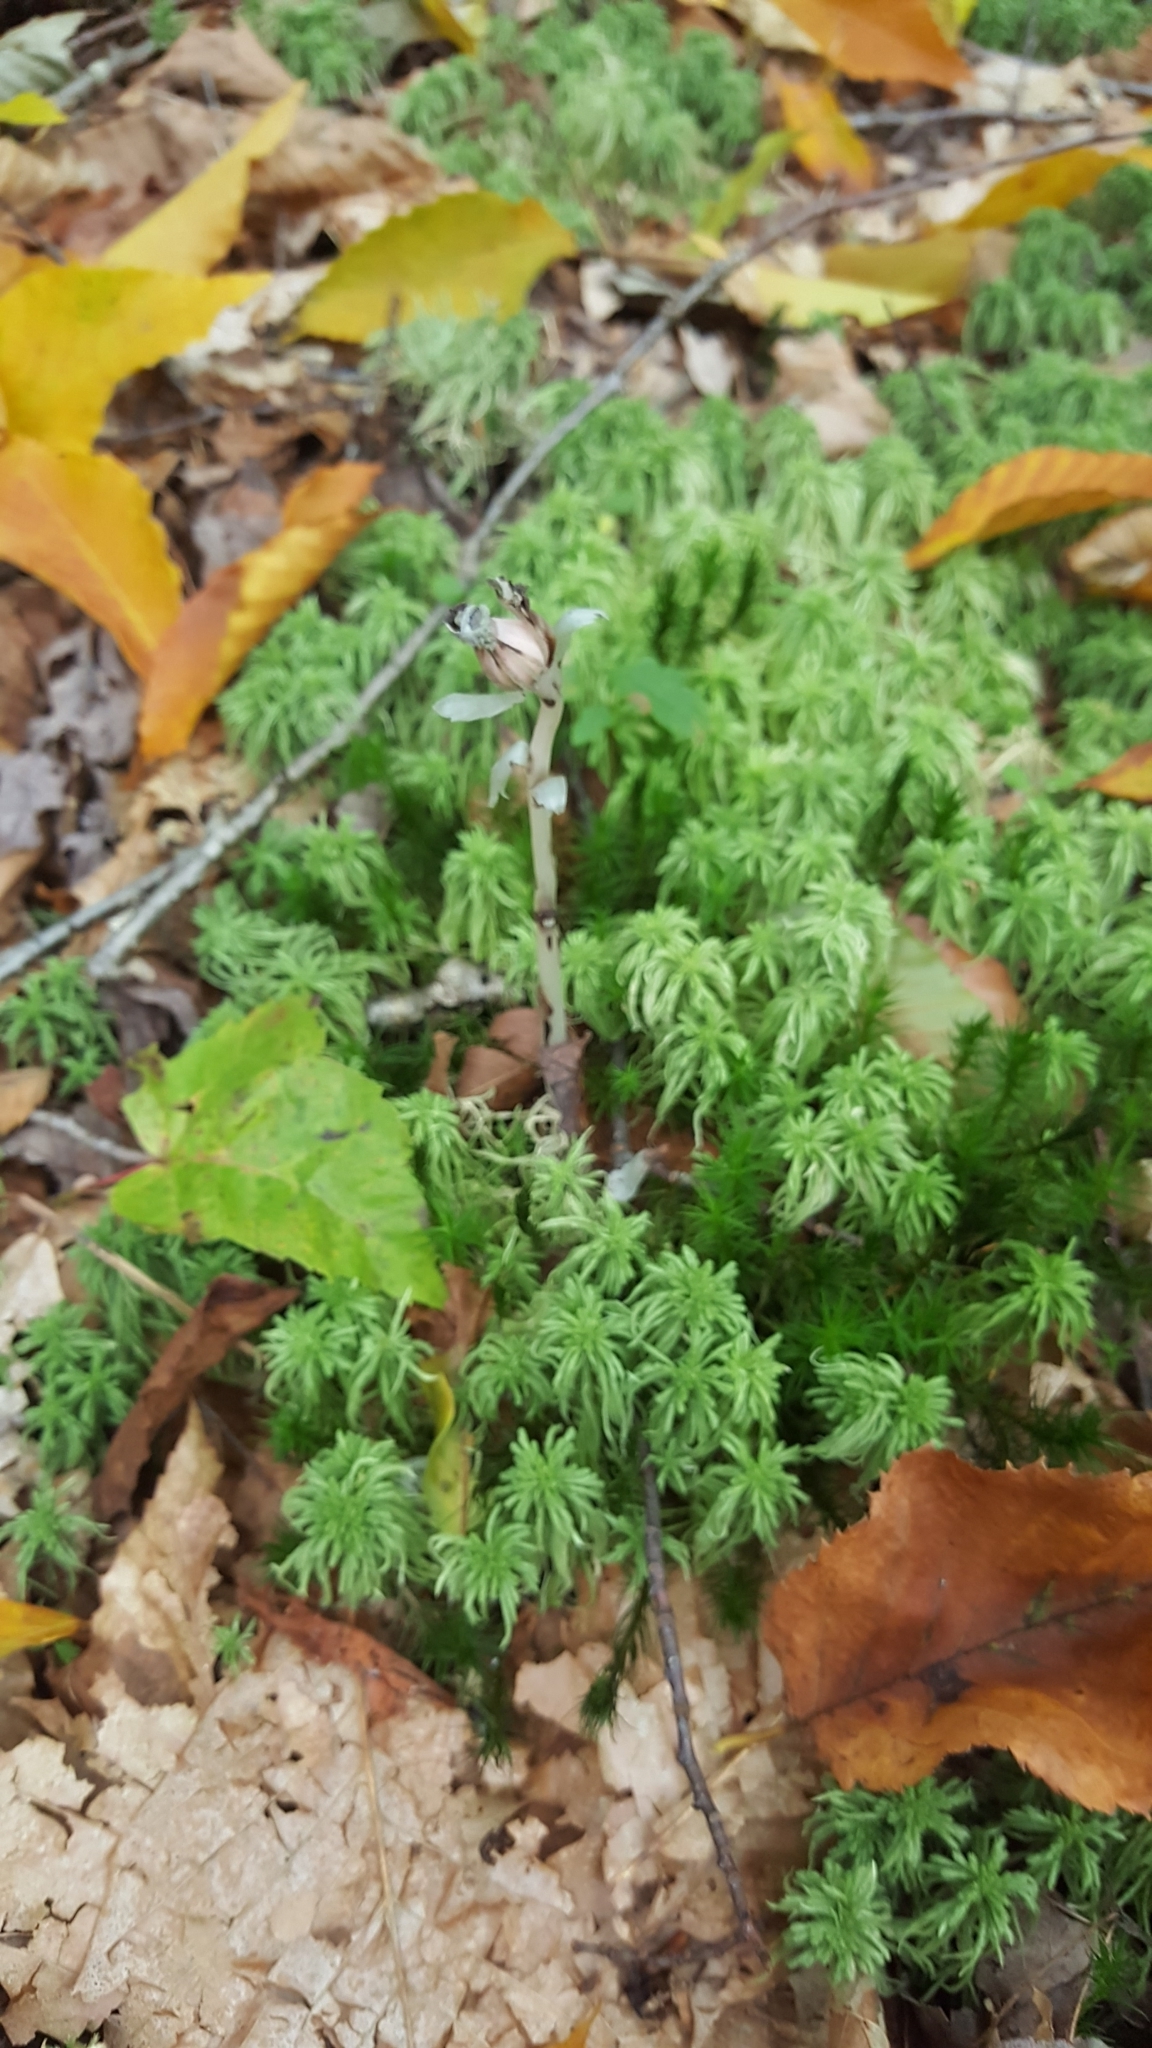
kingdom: Plantae
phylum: Tracheophyta
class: Magnoliopsida
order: Ericales
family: Ericaceae
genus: Monotropa
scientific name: Monotropa uniflora
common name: Convulsion root
